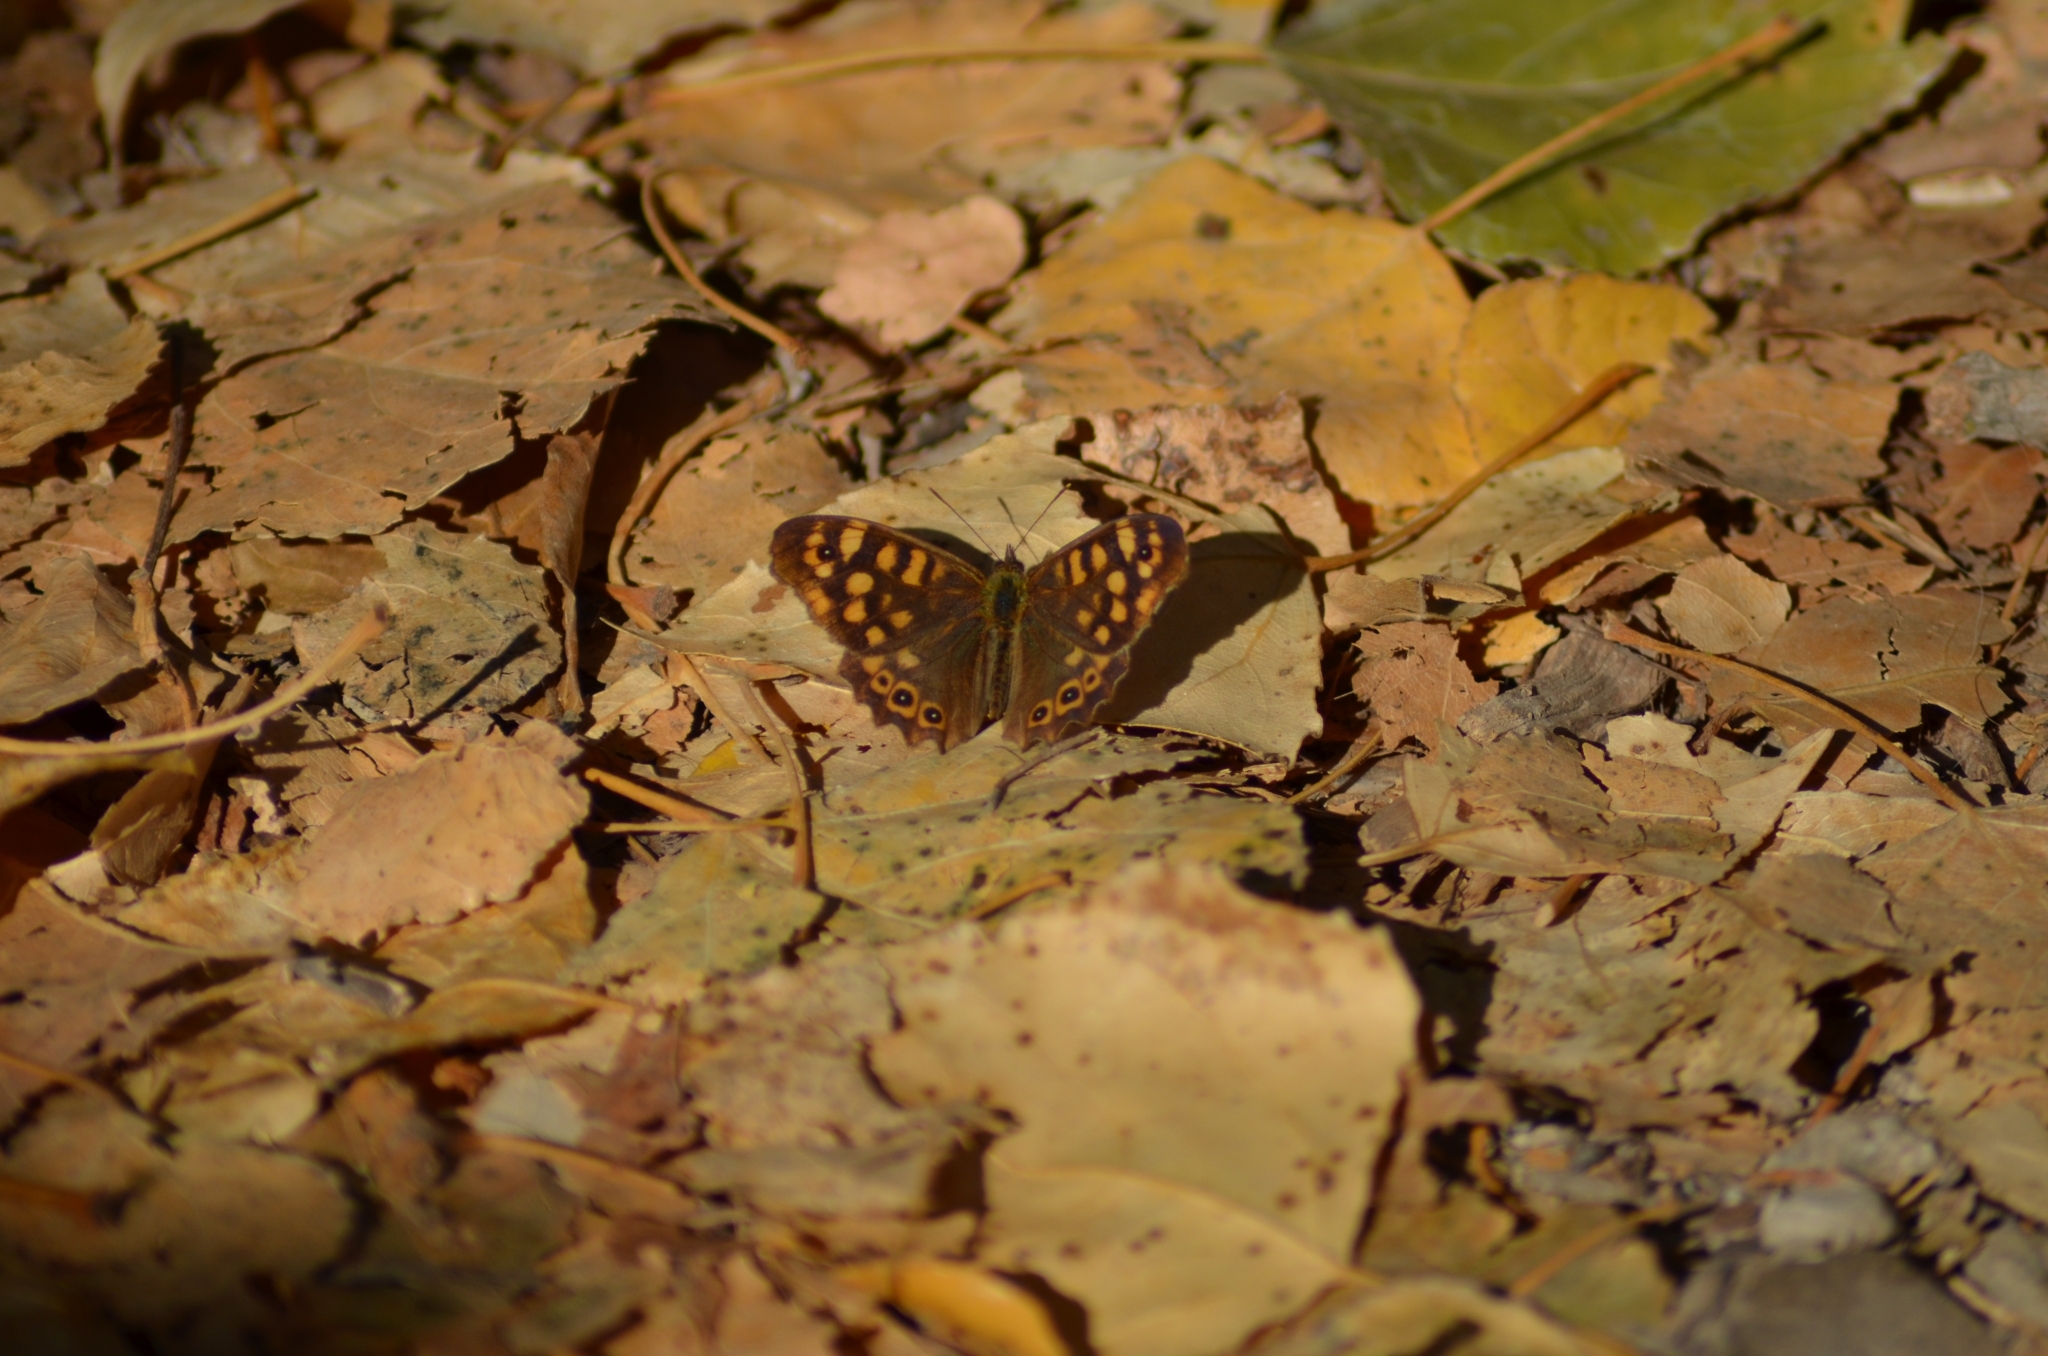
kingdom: Animalia
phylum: Arthropoda
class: Insecta
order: Lepidoptera
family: Nymphalidae
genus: Pararge
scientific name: Pararge aegeria
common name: Speckled wood
